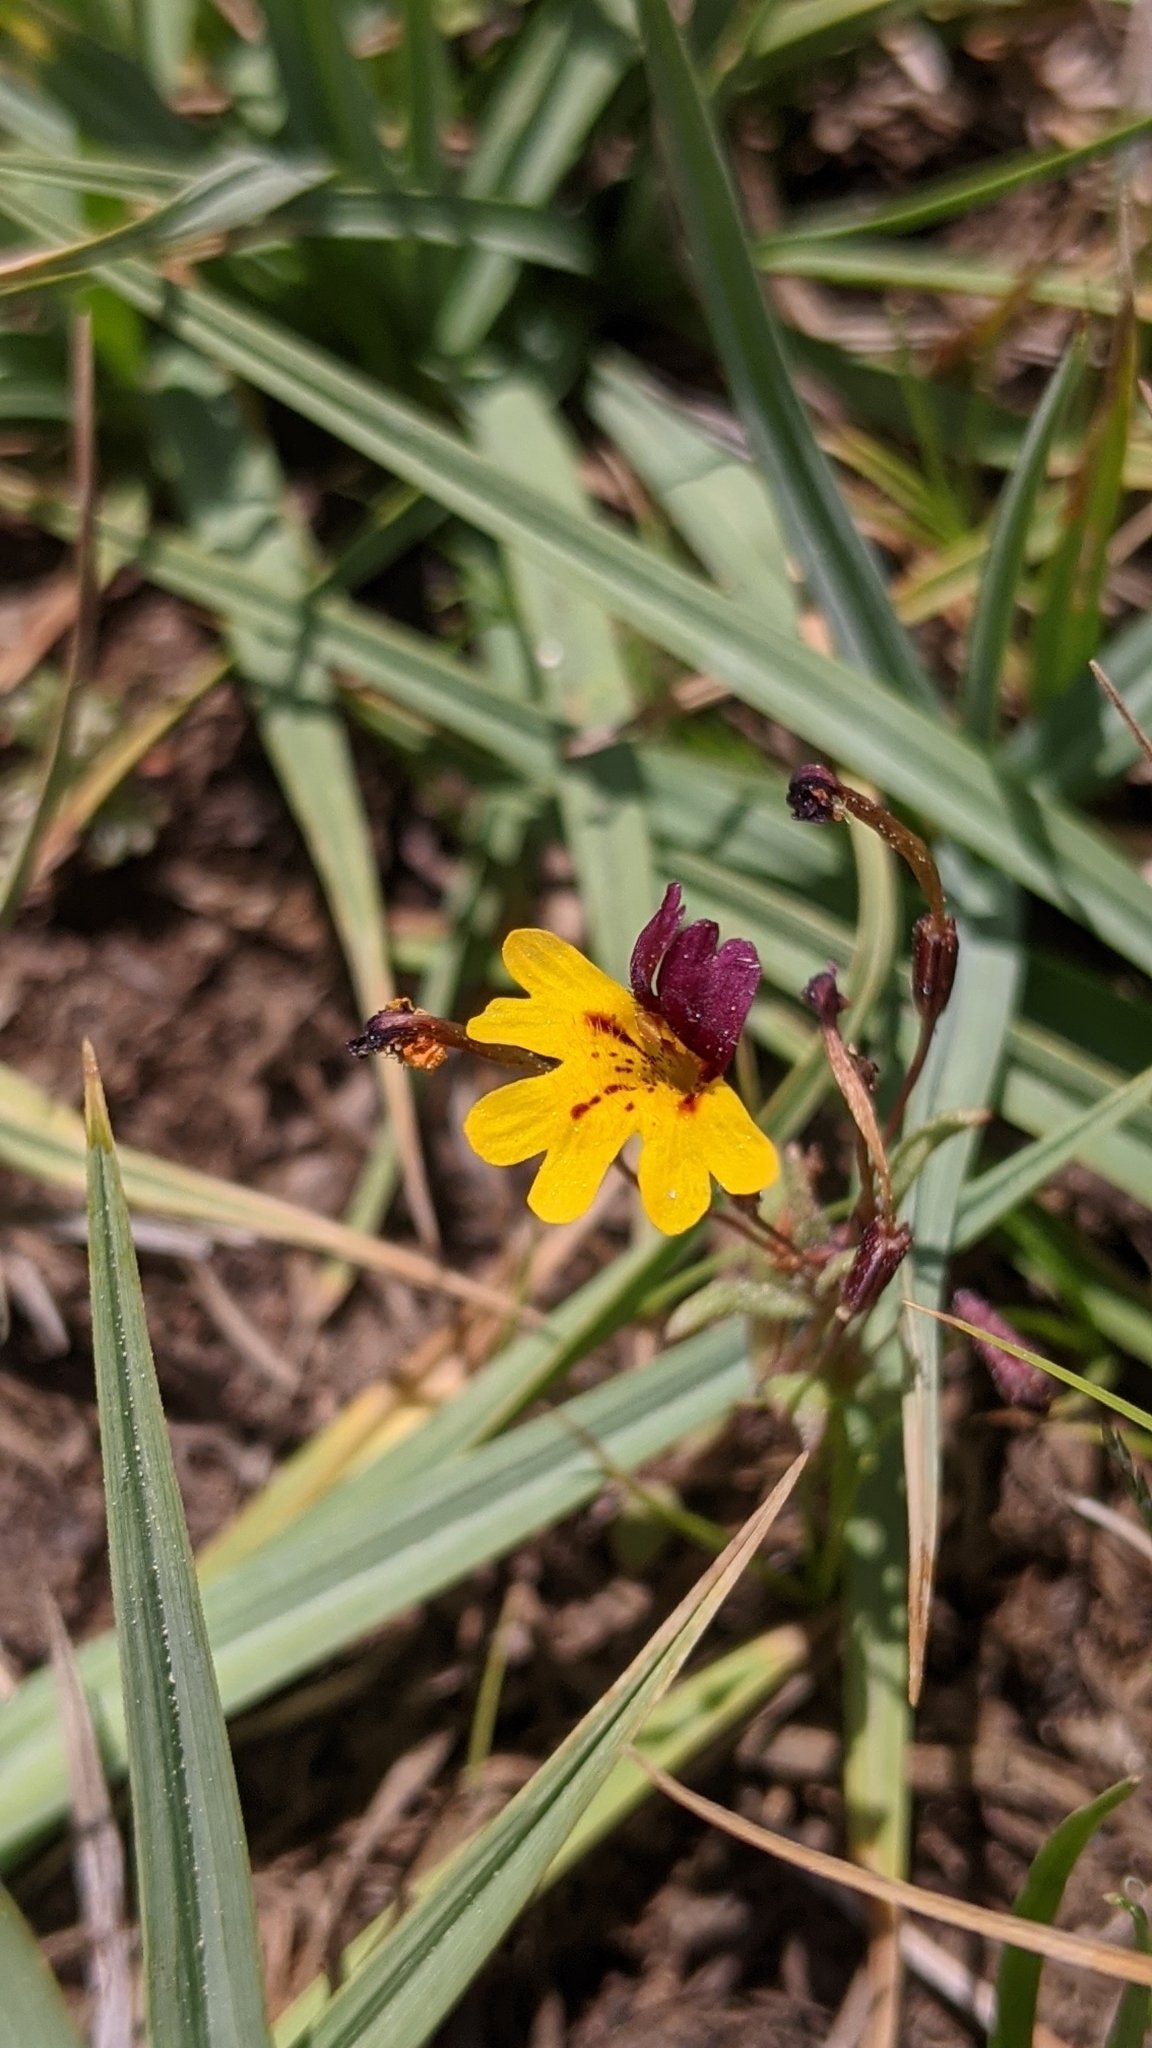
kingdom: Plantae
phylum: Tracheophyta
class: Magnoliopsida
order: Lamiales
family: Phrymaceae
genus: Erythranthe
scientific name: Erythranthe barbata
